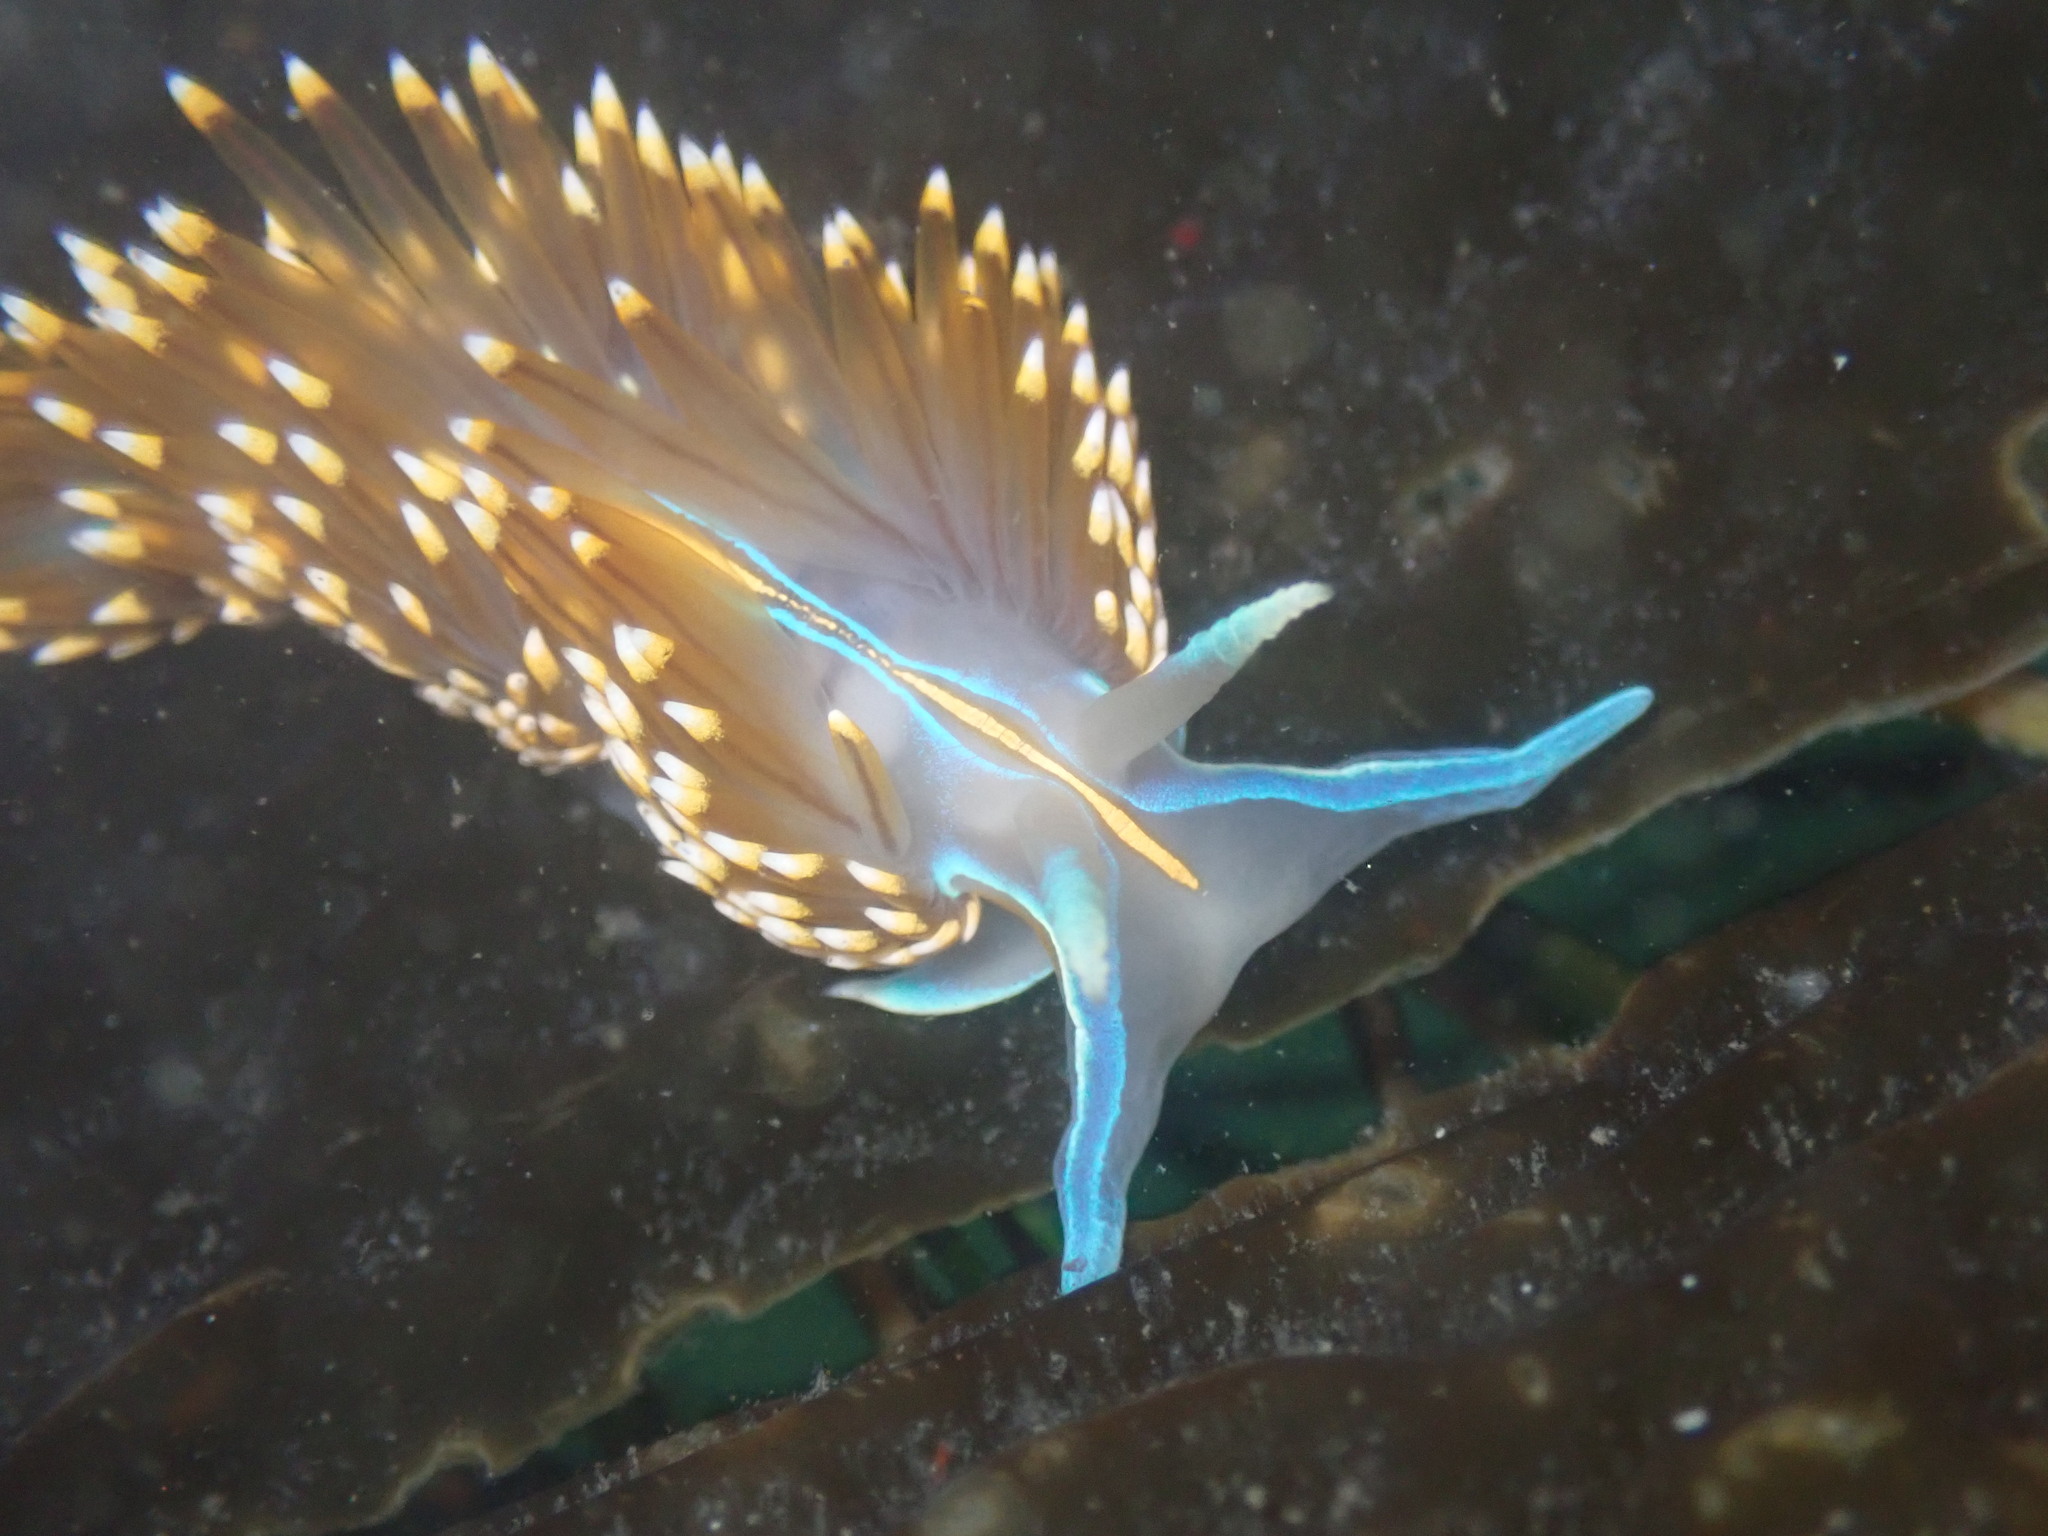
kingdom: Animalia
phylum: Mollusca
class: Gastropoda
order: Nudibranchia
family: Myrrhinidae
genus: Hermissenda
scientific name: Hermissenda opalescens
